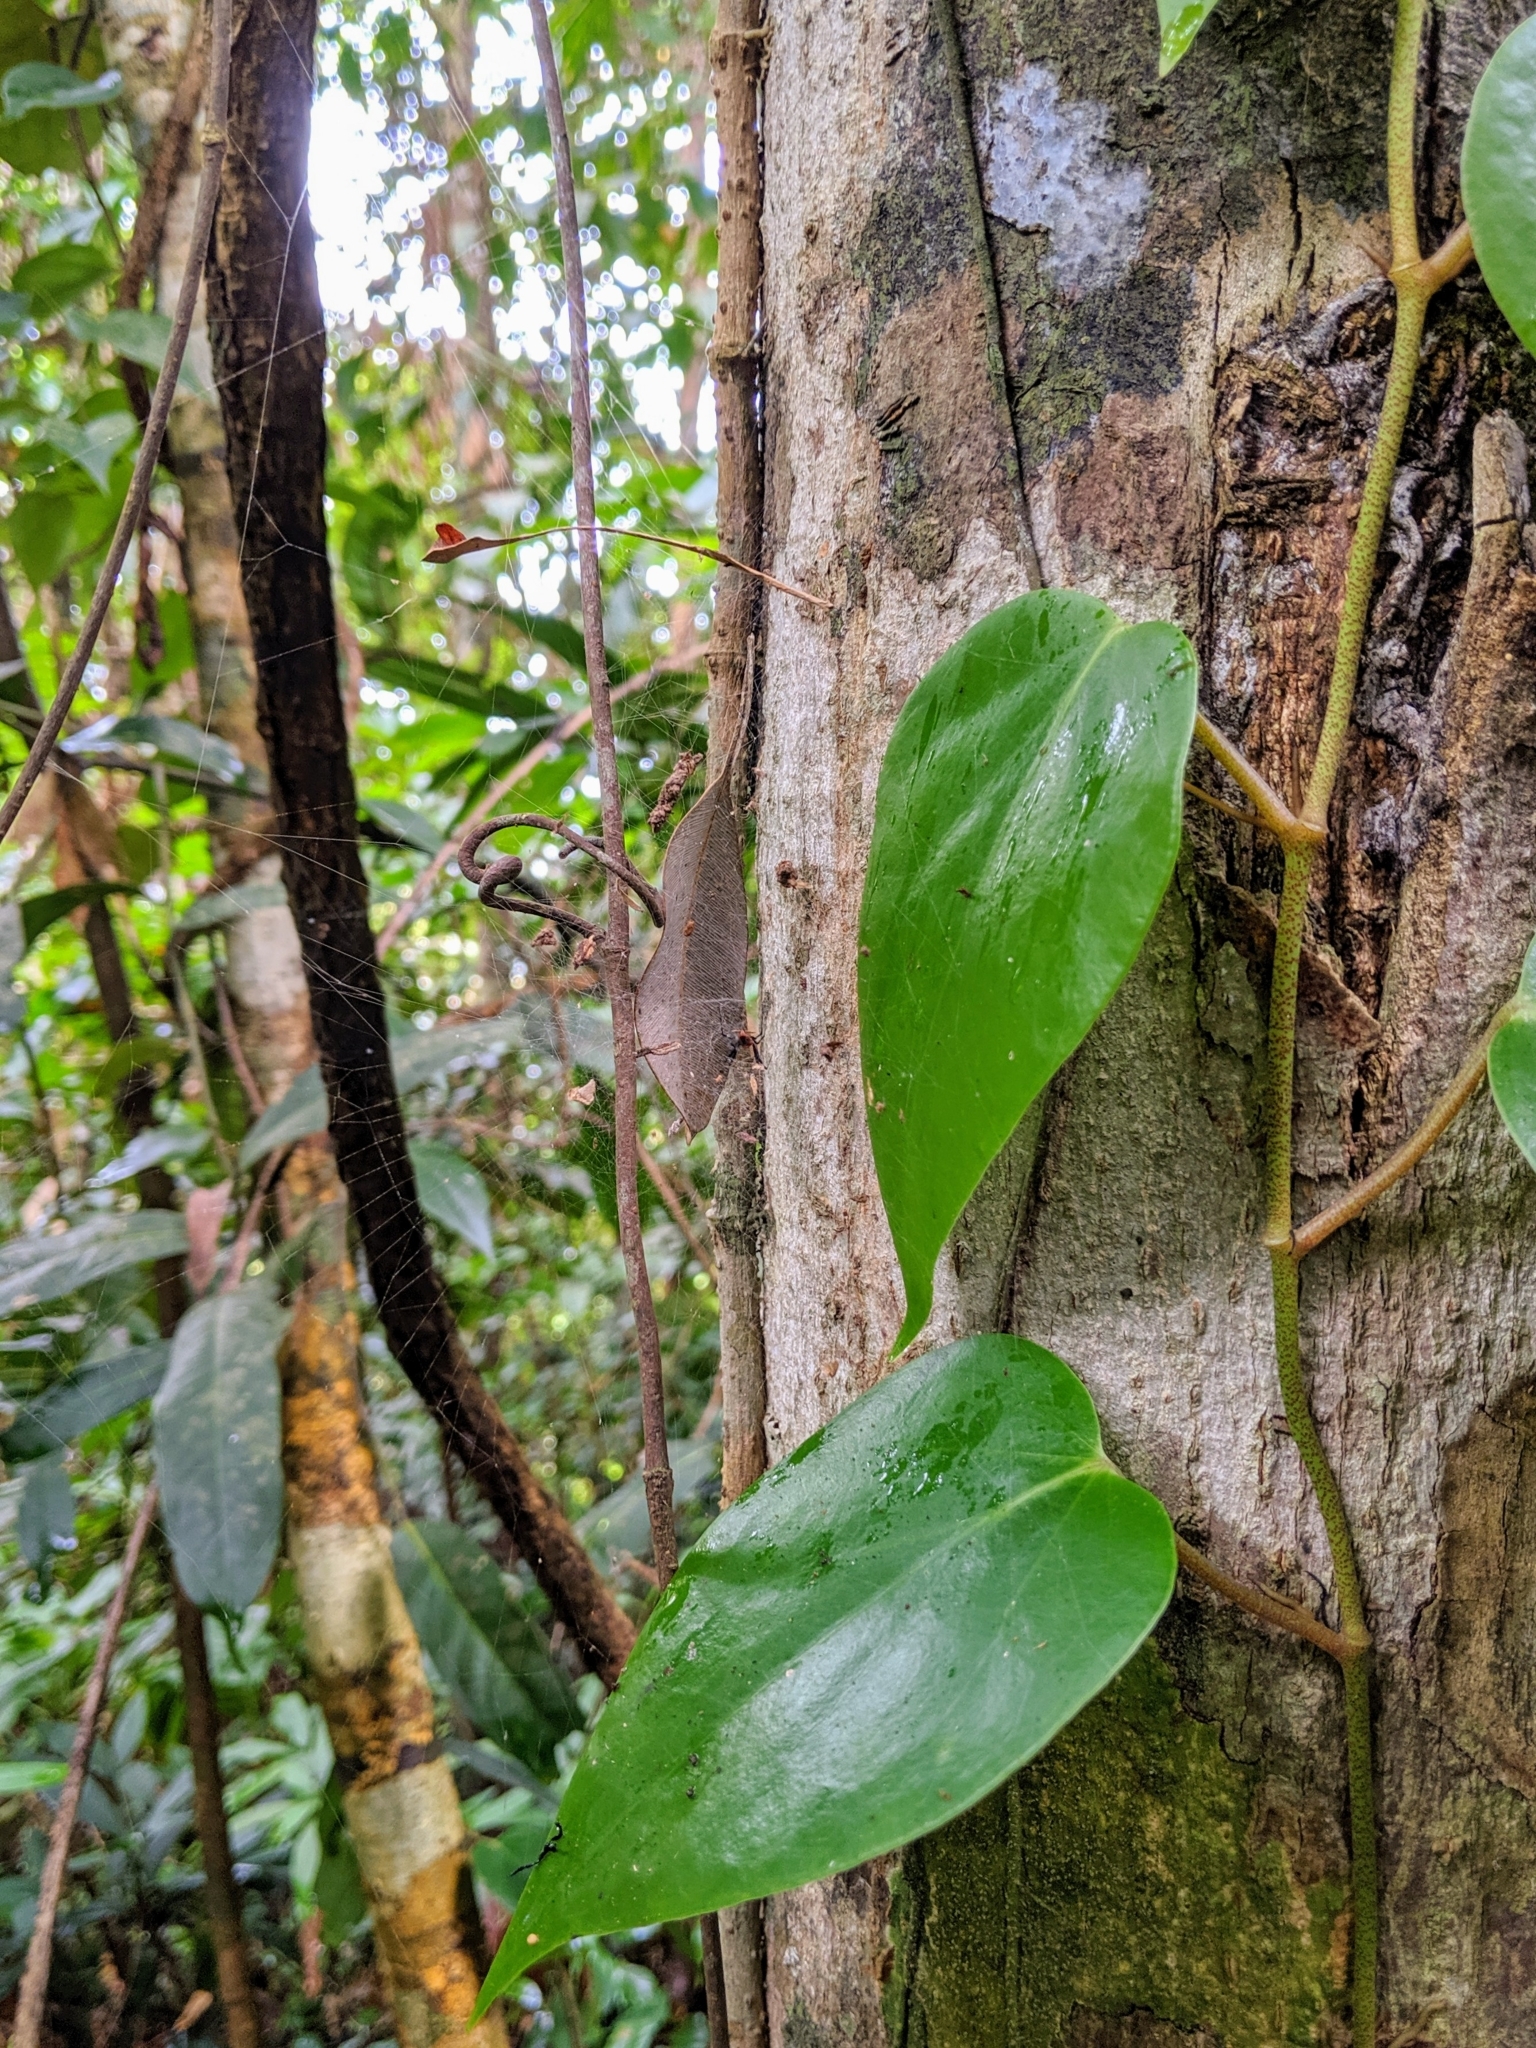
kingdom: Animalia
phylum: Arthropoda
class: Arachnida
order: Araneae
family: Araneidae
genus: Nephilengys
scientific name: Nephilengys malabarensis
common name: Asian hermit spider
